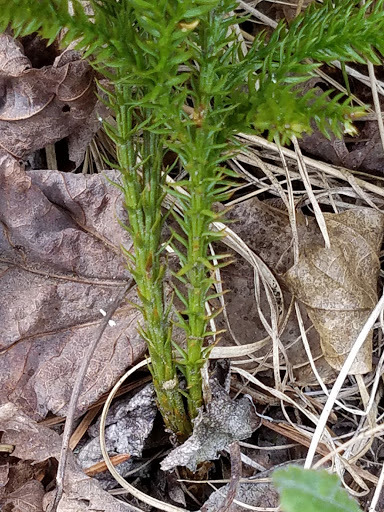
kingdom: Plantae
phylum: Tracheophyta
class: Lycopodiopsida
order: Lycopodiales
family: Lycopodiaceae
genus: Dendrolycopodium
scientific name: Dendrolycopodium dendroideum
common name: Northern tree-clubmoss
